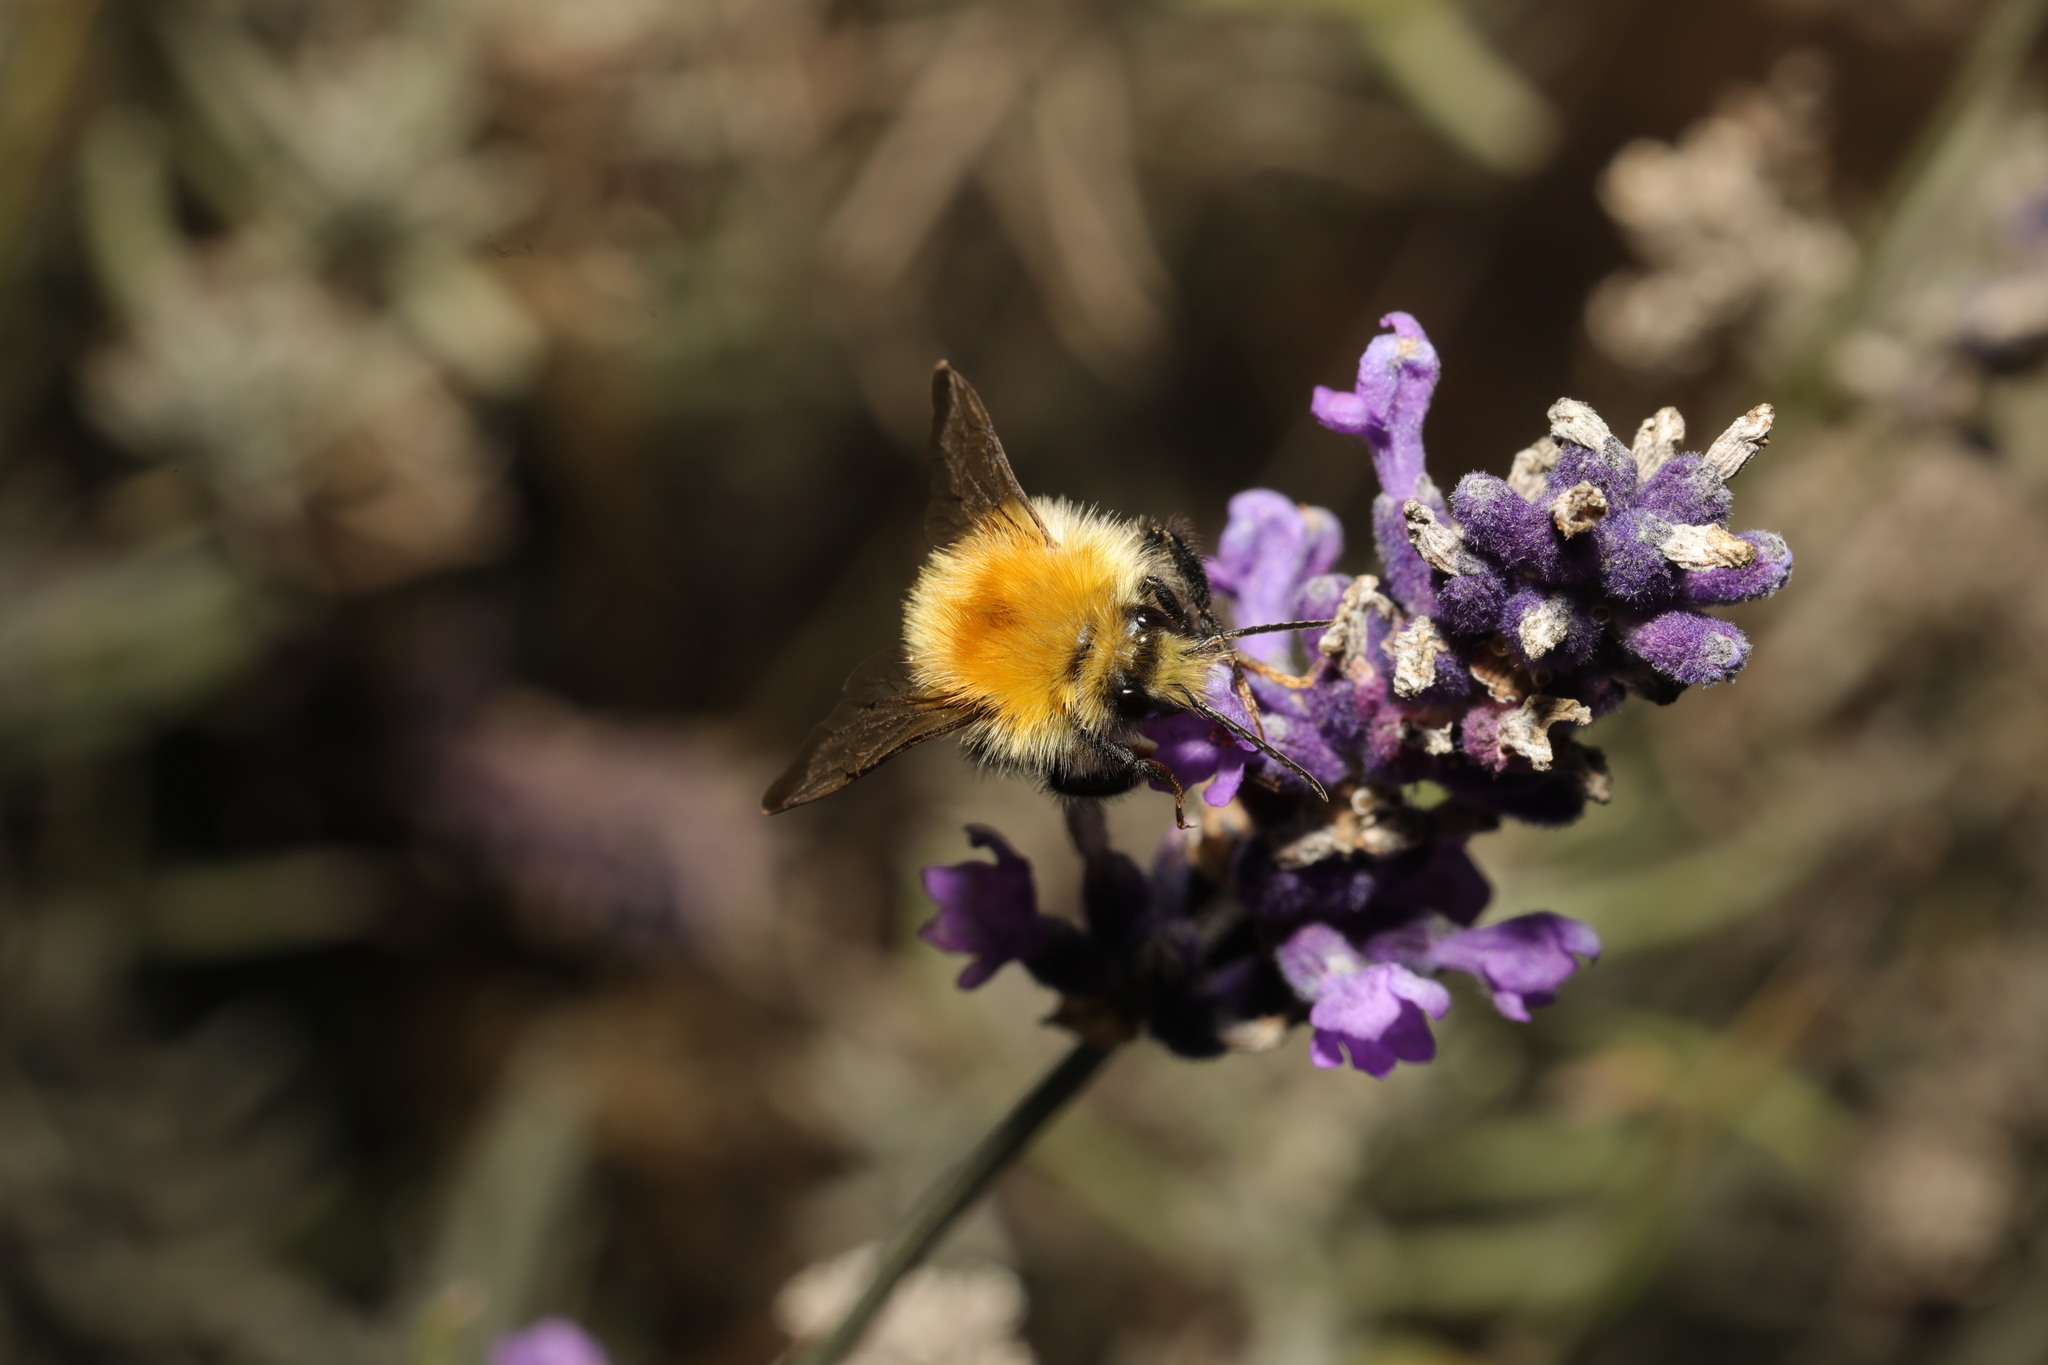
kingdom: Animalia
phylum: Arthropoda
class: Insecta
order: Hymenoptera
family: Apidae
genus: Bombus
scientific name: Bombus pascuorum
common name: Common carder bee
